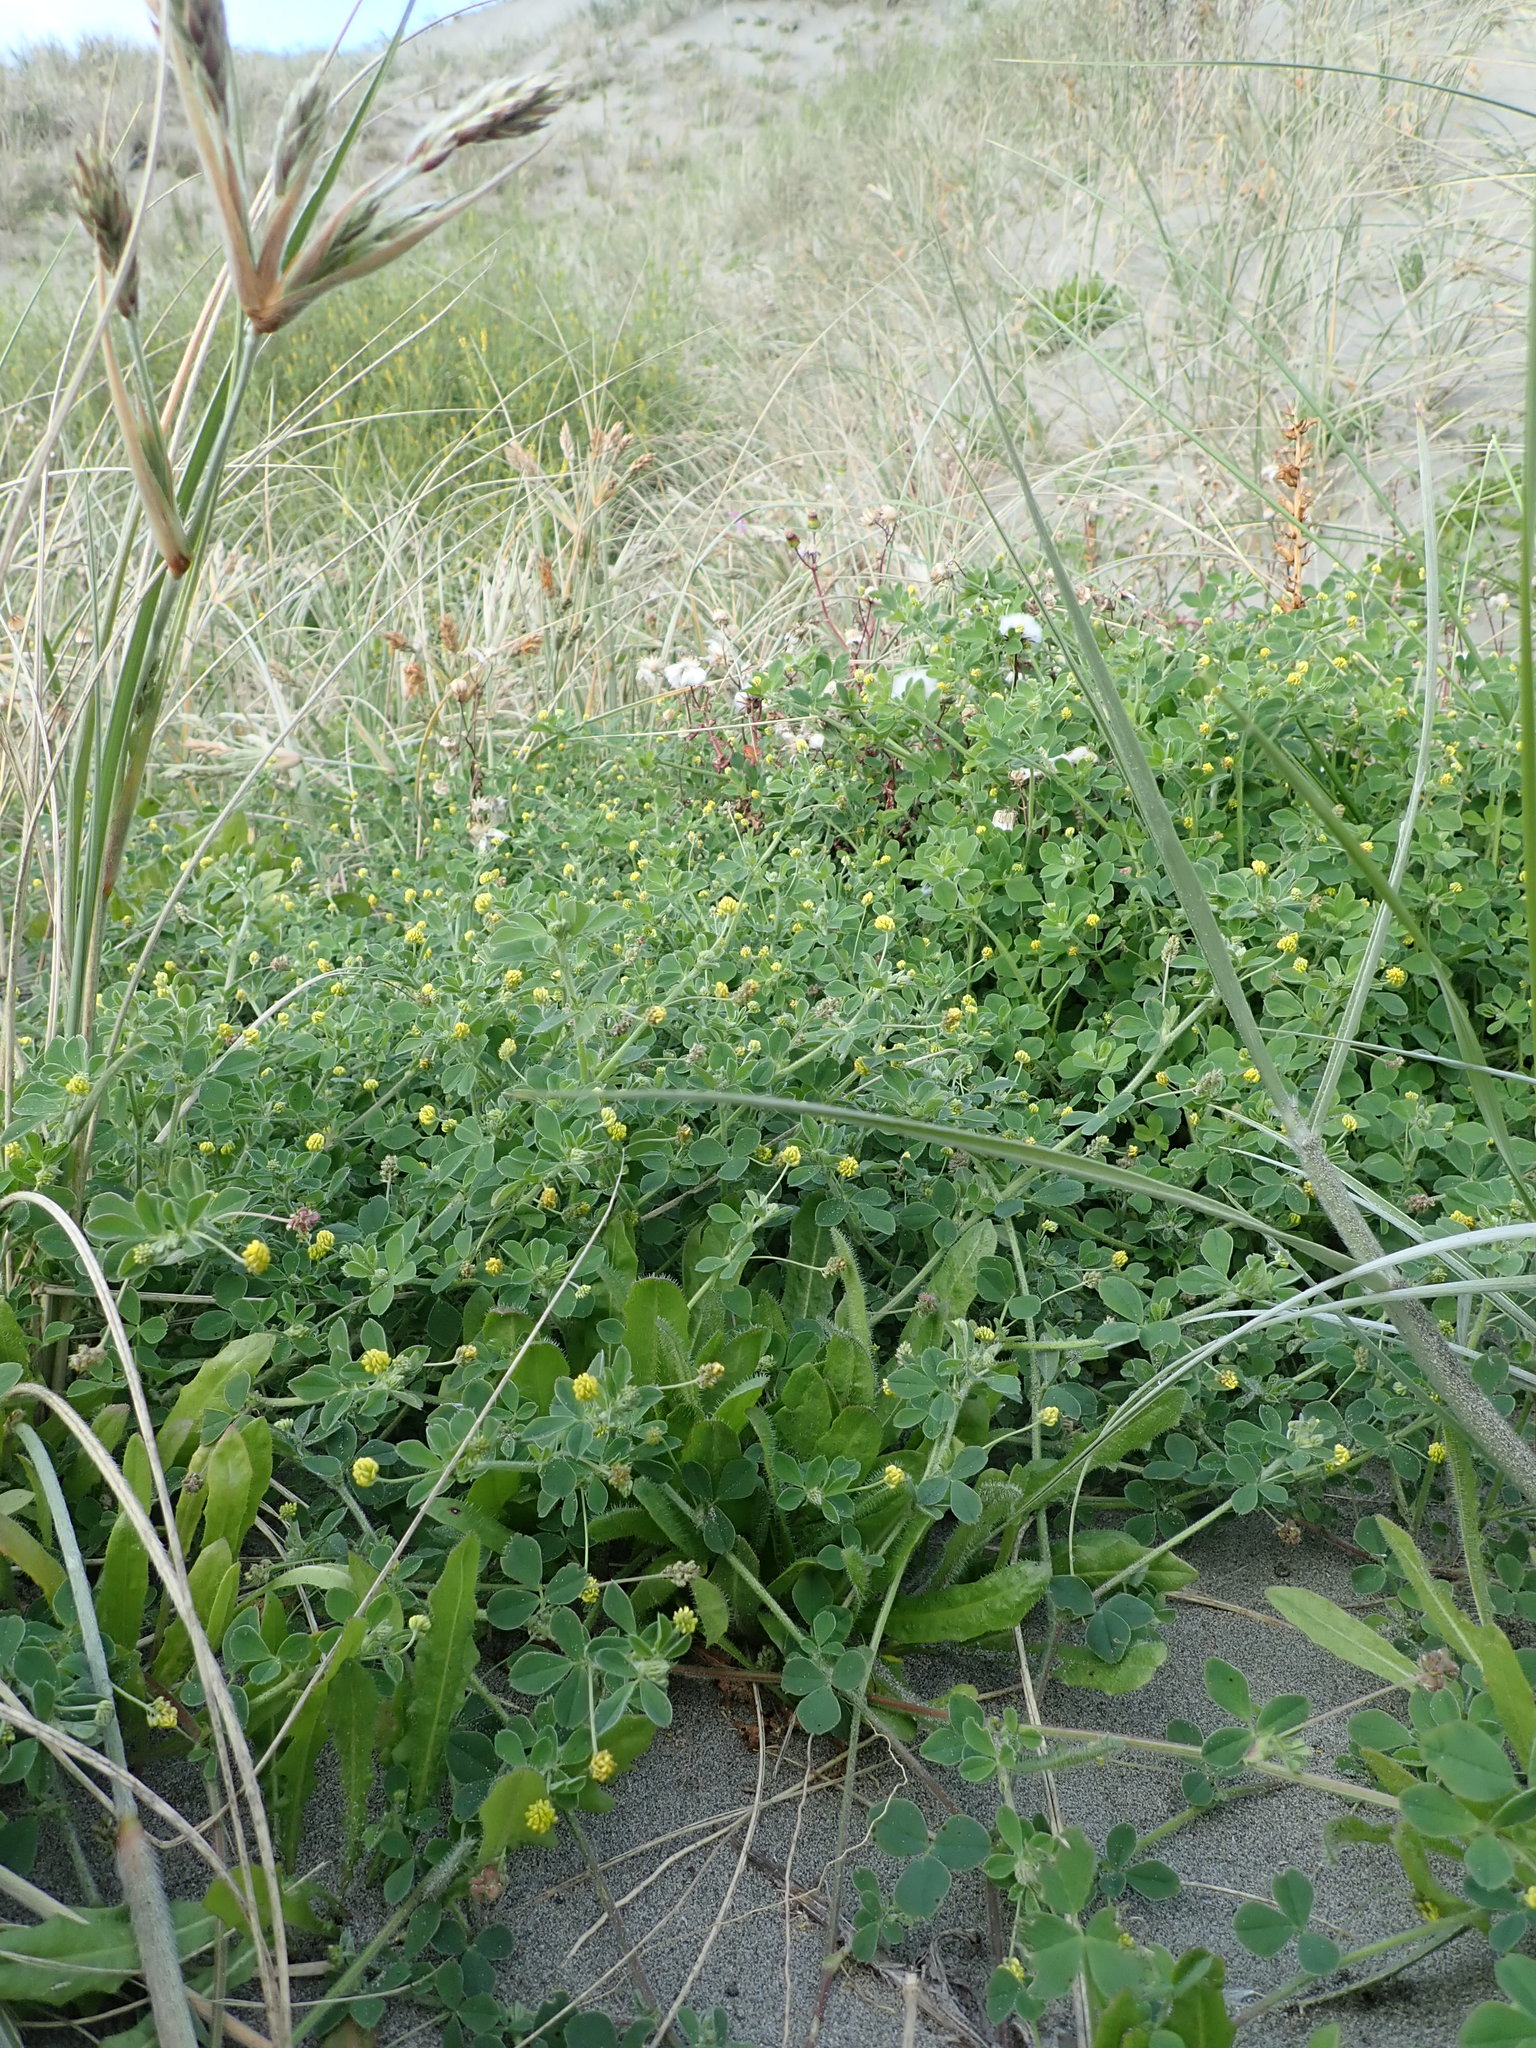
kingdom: Plantae
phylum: Tracheophyta
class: Magnoliopsida
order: Fabales
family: Fabaceae
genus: Medicago
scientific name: Medicago lupulina
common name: Black medick
